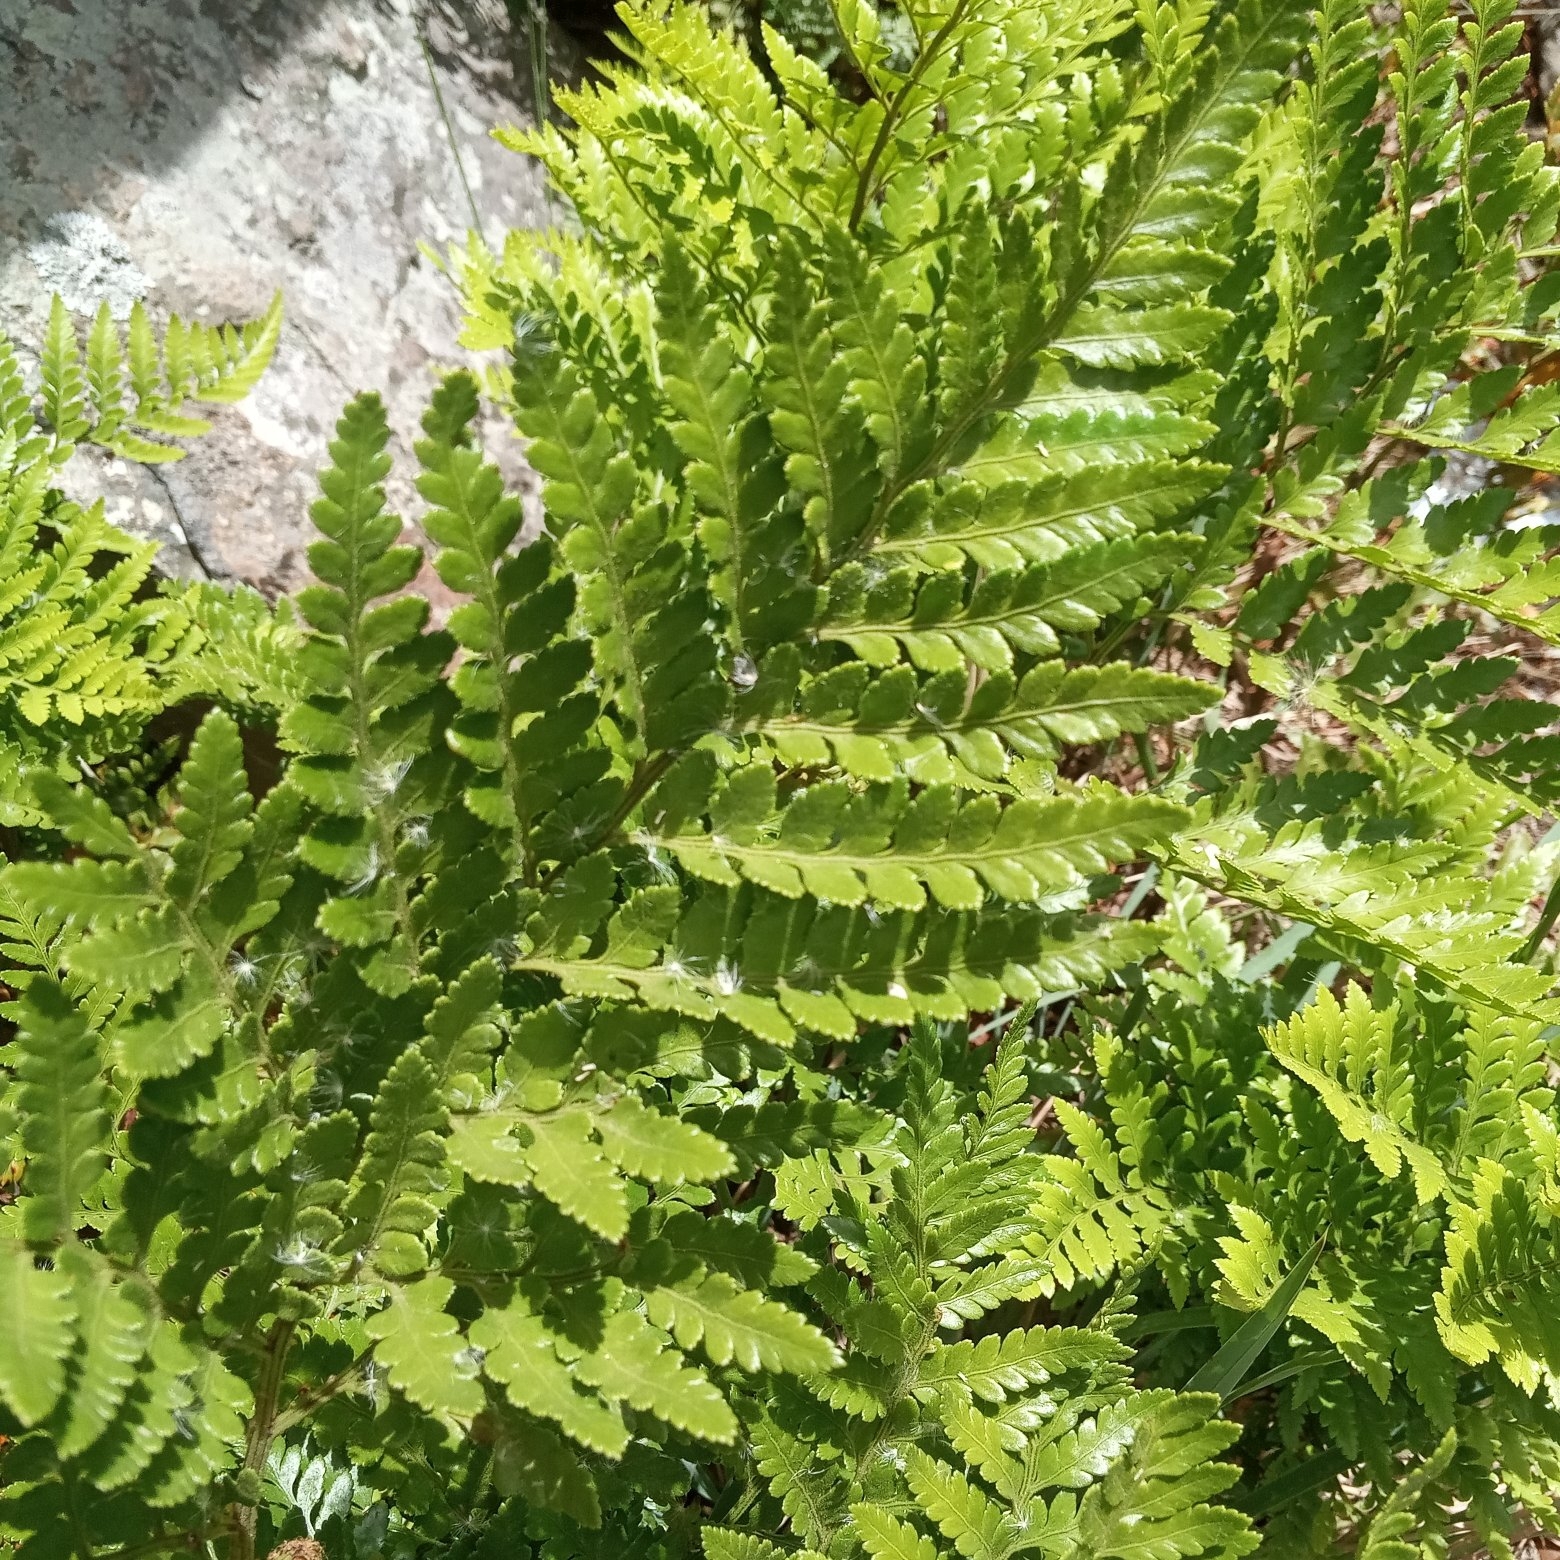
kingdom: Plantae
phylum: Tracheophyta
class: Polypodiopsida
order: Polypodiales
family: Dryopteridaceae
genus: Rumohra
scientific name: Rumohra adiantiformis
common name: Leather fern
